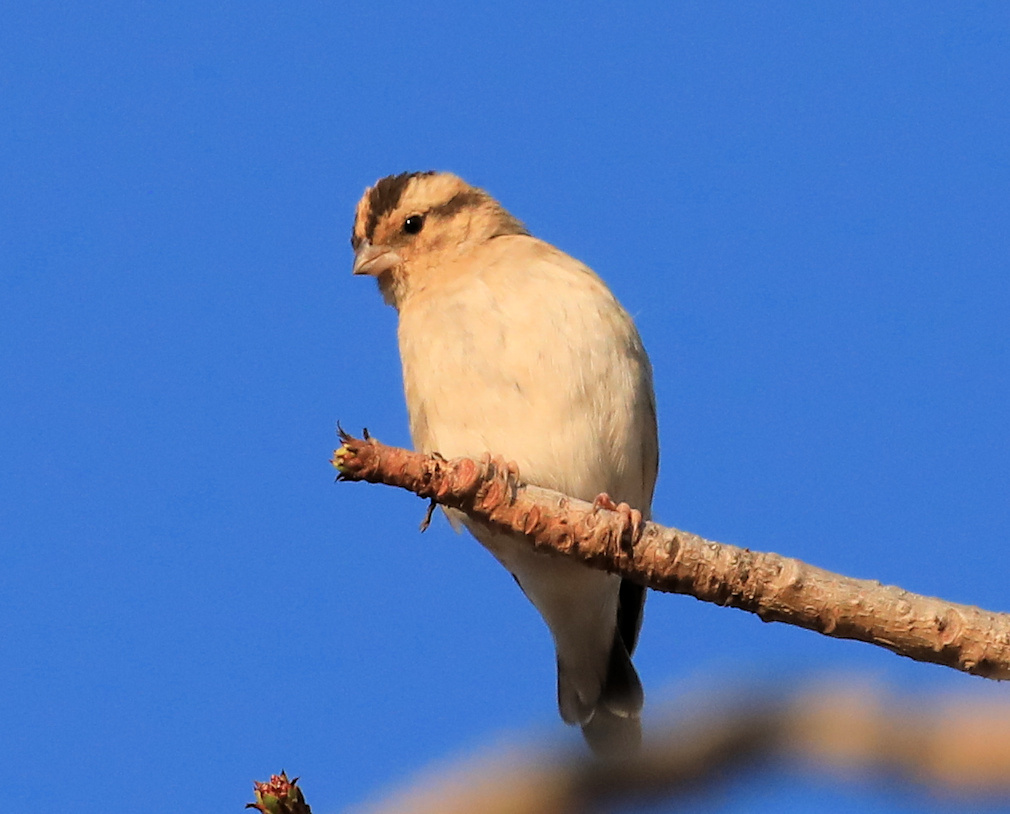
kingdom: Animalia
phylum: Chordata
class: Aves
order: Passeriformes
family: Viduidae
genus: Vidua
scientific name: Vidua funerea
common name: Dusky indigobird
